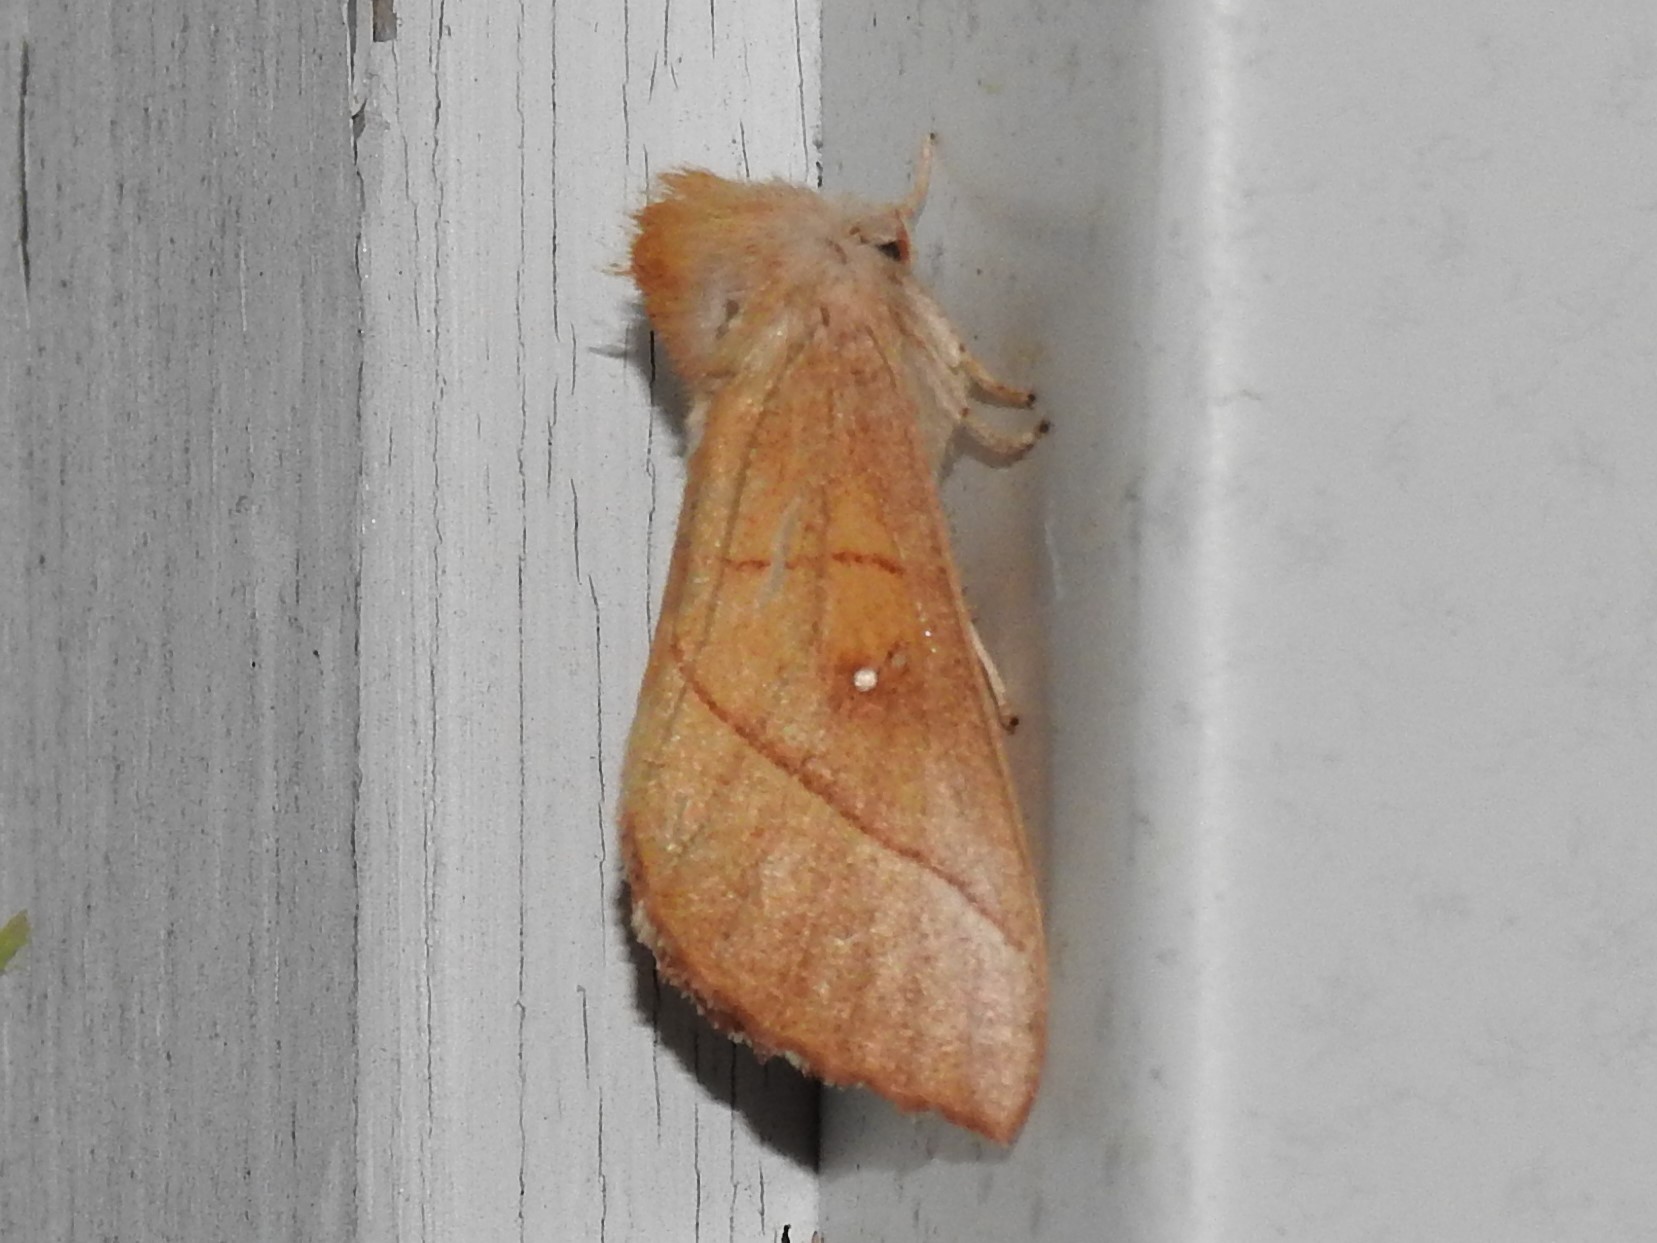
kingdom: Animalia
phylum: Arthropoda
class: Insecta
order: Lepidoptera
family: Notodontidae
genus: Nadata
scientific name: Nadata gibbosa
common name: White-dotted prominent
